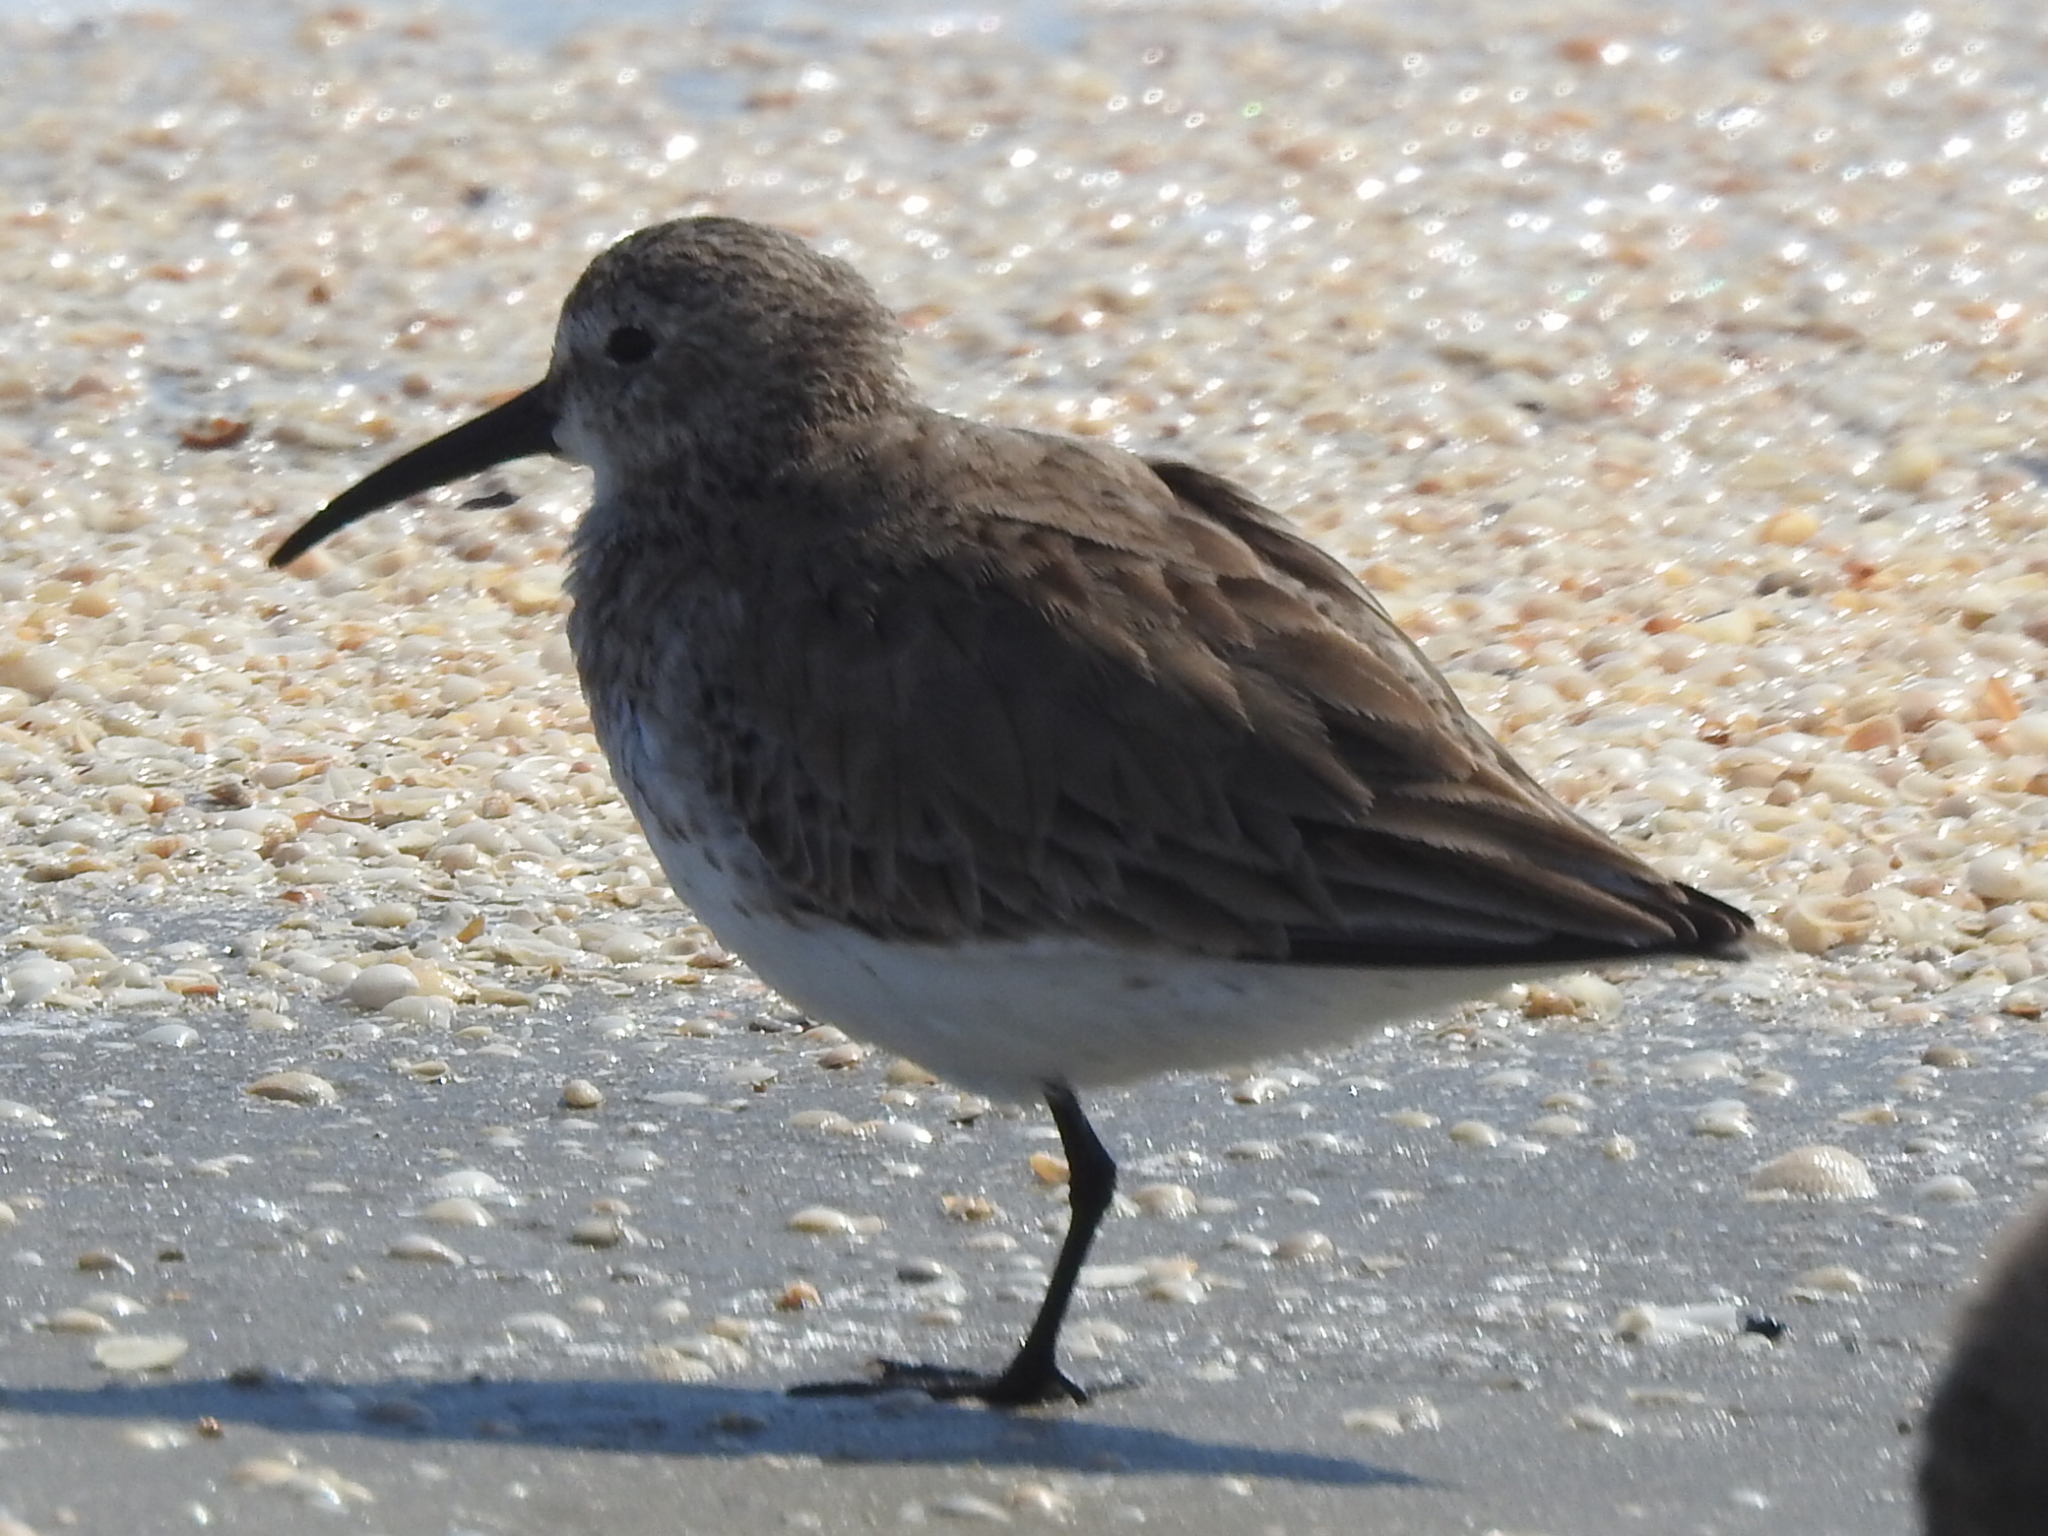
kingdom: Animalia
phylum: Chordata
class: Aves
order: Charadriiformes
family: Scolopacidae
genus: Calidris
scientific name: Calidris alpina
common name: Dunlin
